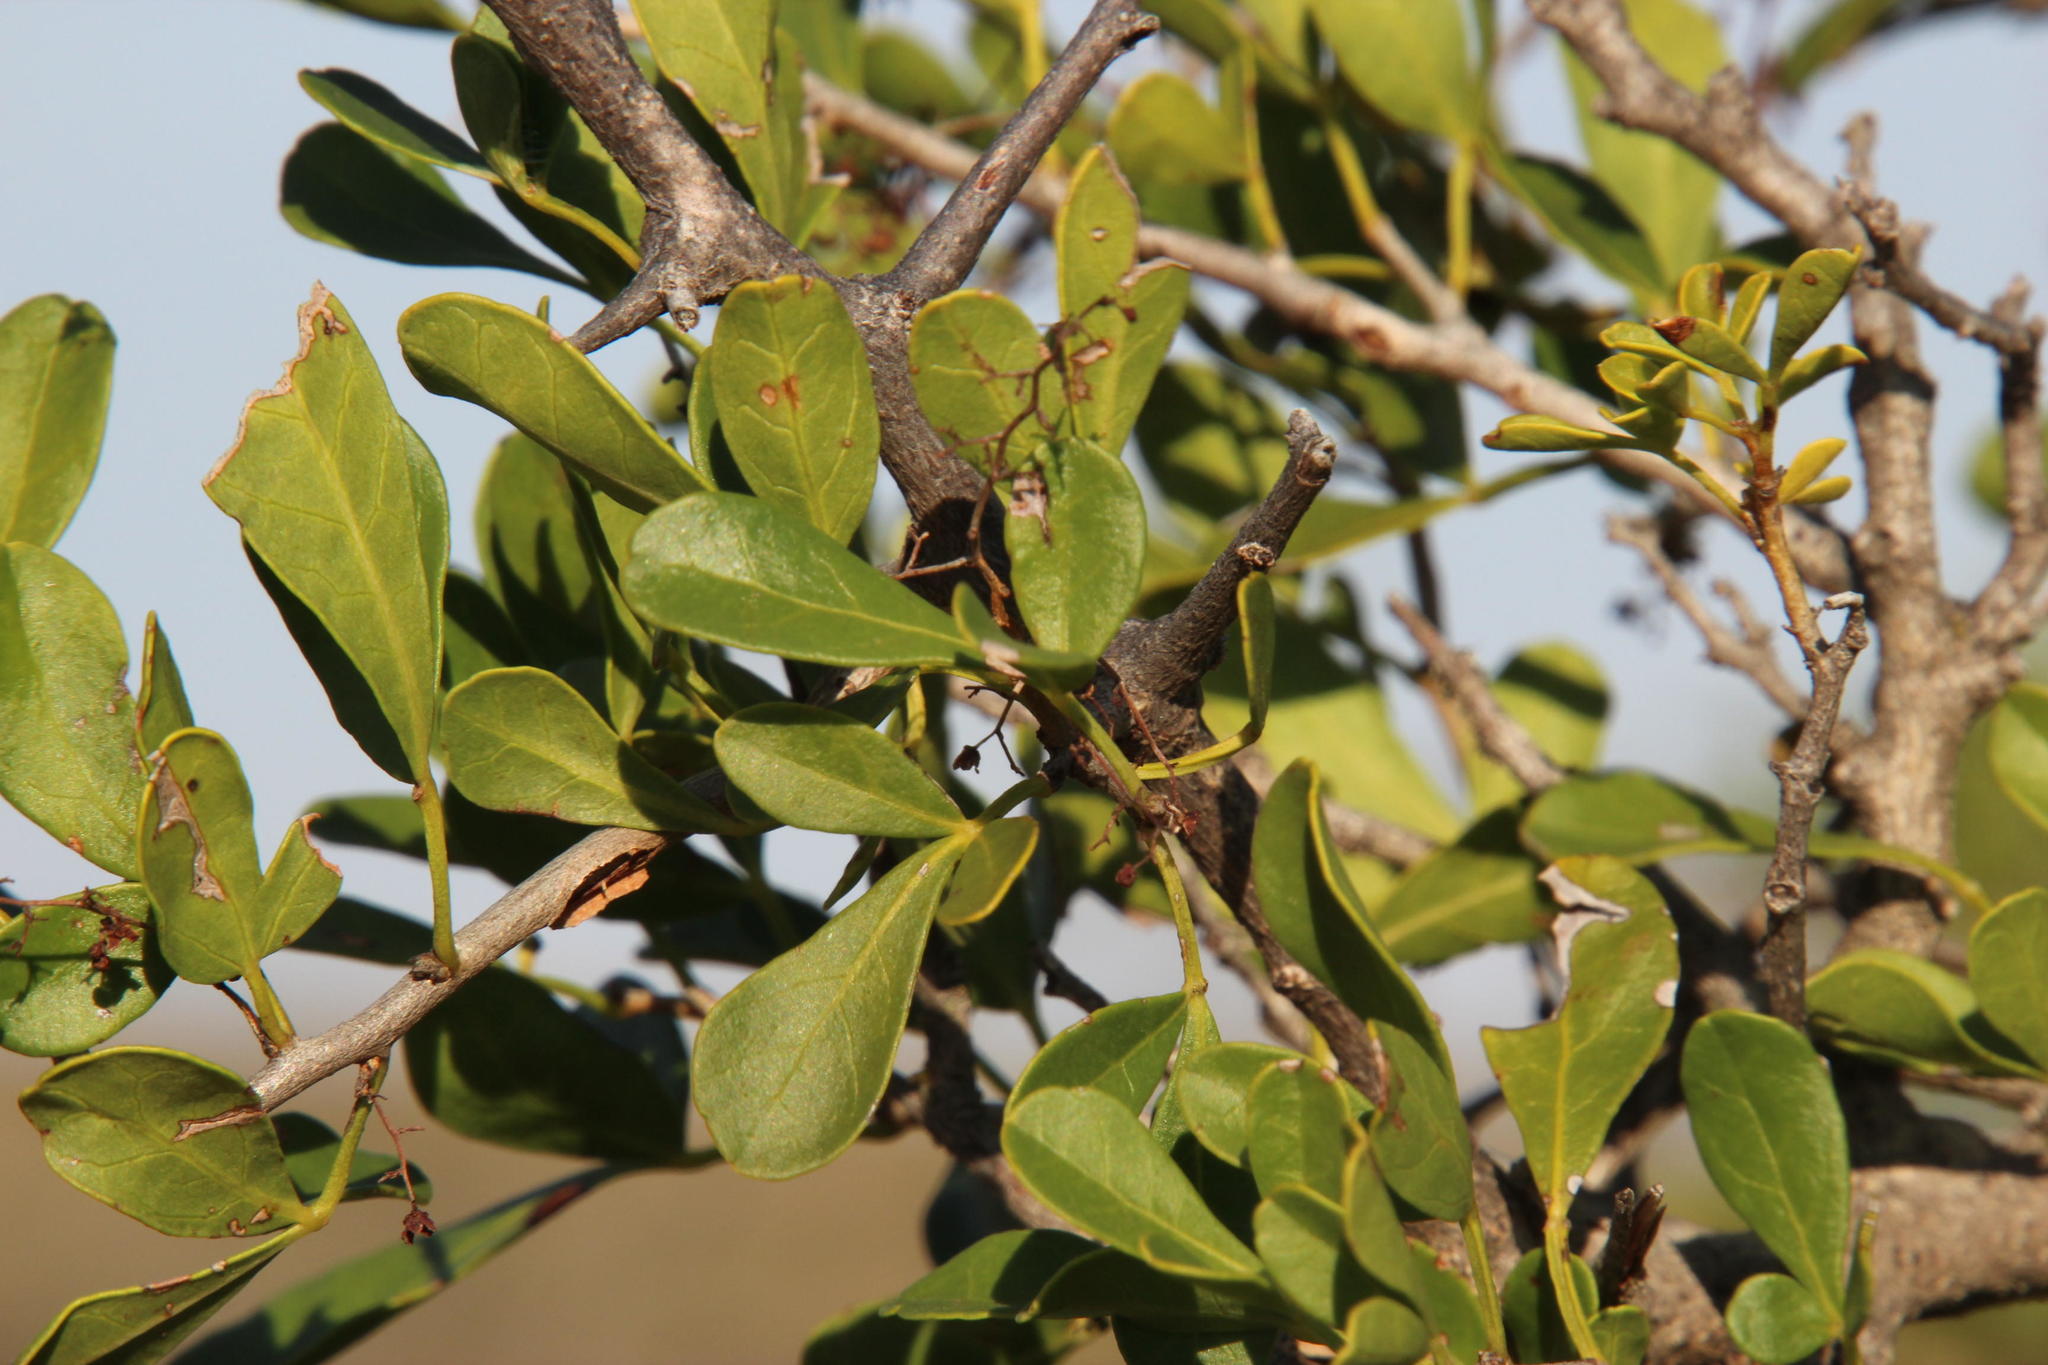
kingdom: Plantae
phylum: Tracheophyta
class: Magnoliopsida
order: Sapindales
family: Anacardiaceae
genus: Searsia
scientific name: Searsia refracta
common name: Thorny crow-berry
